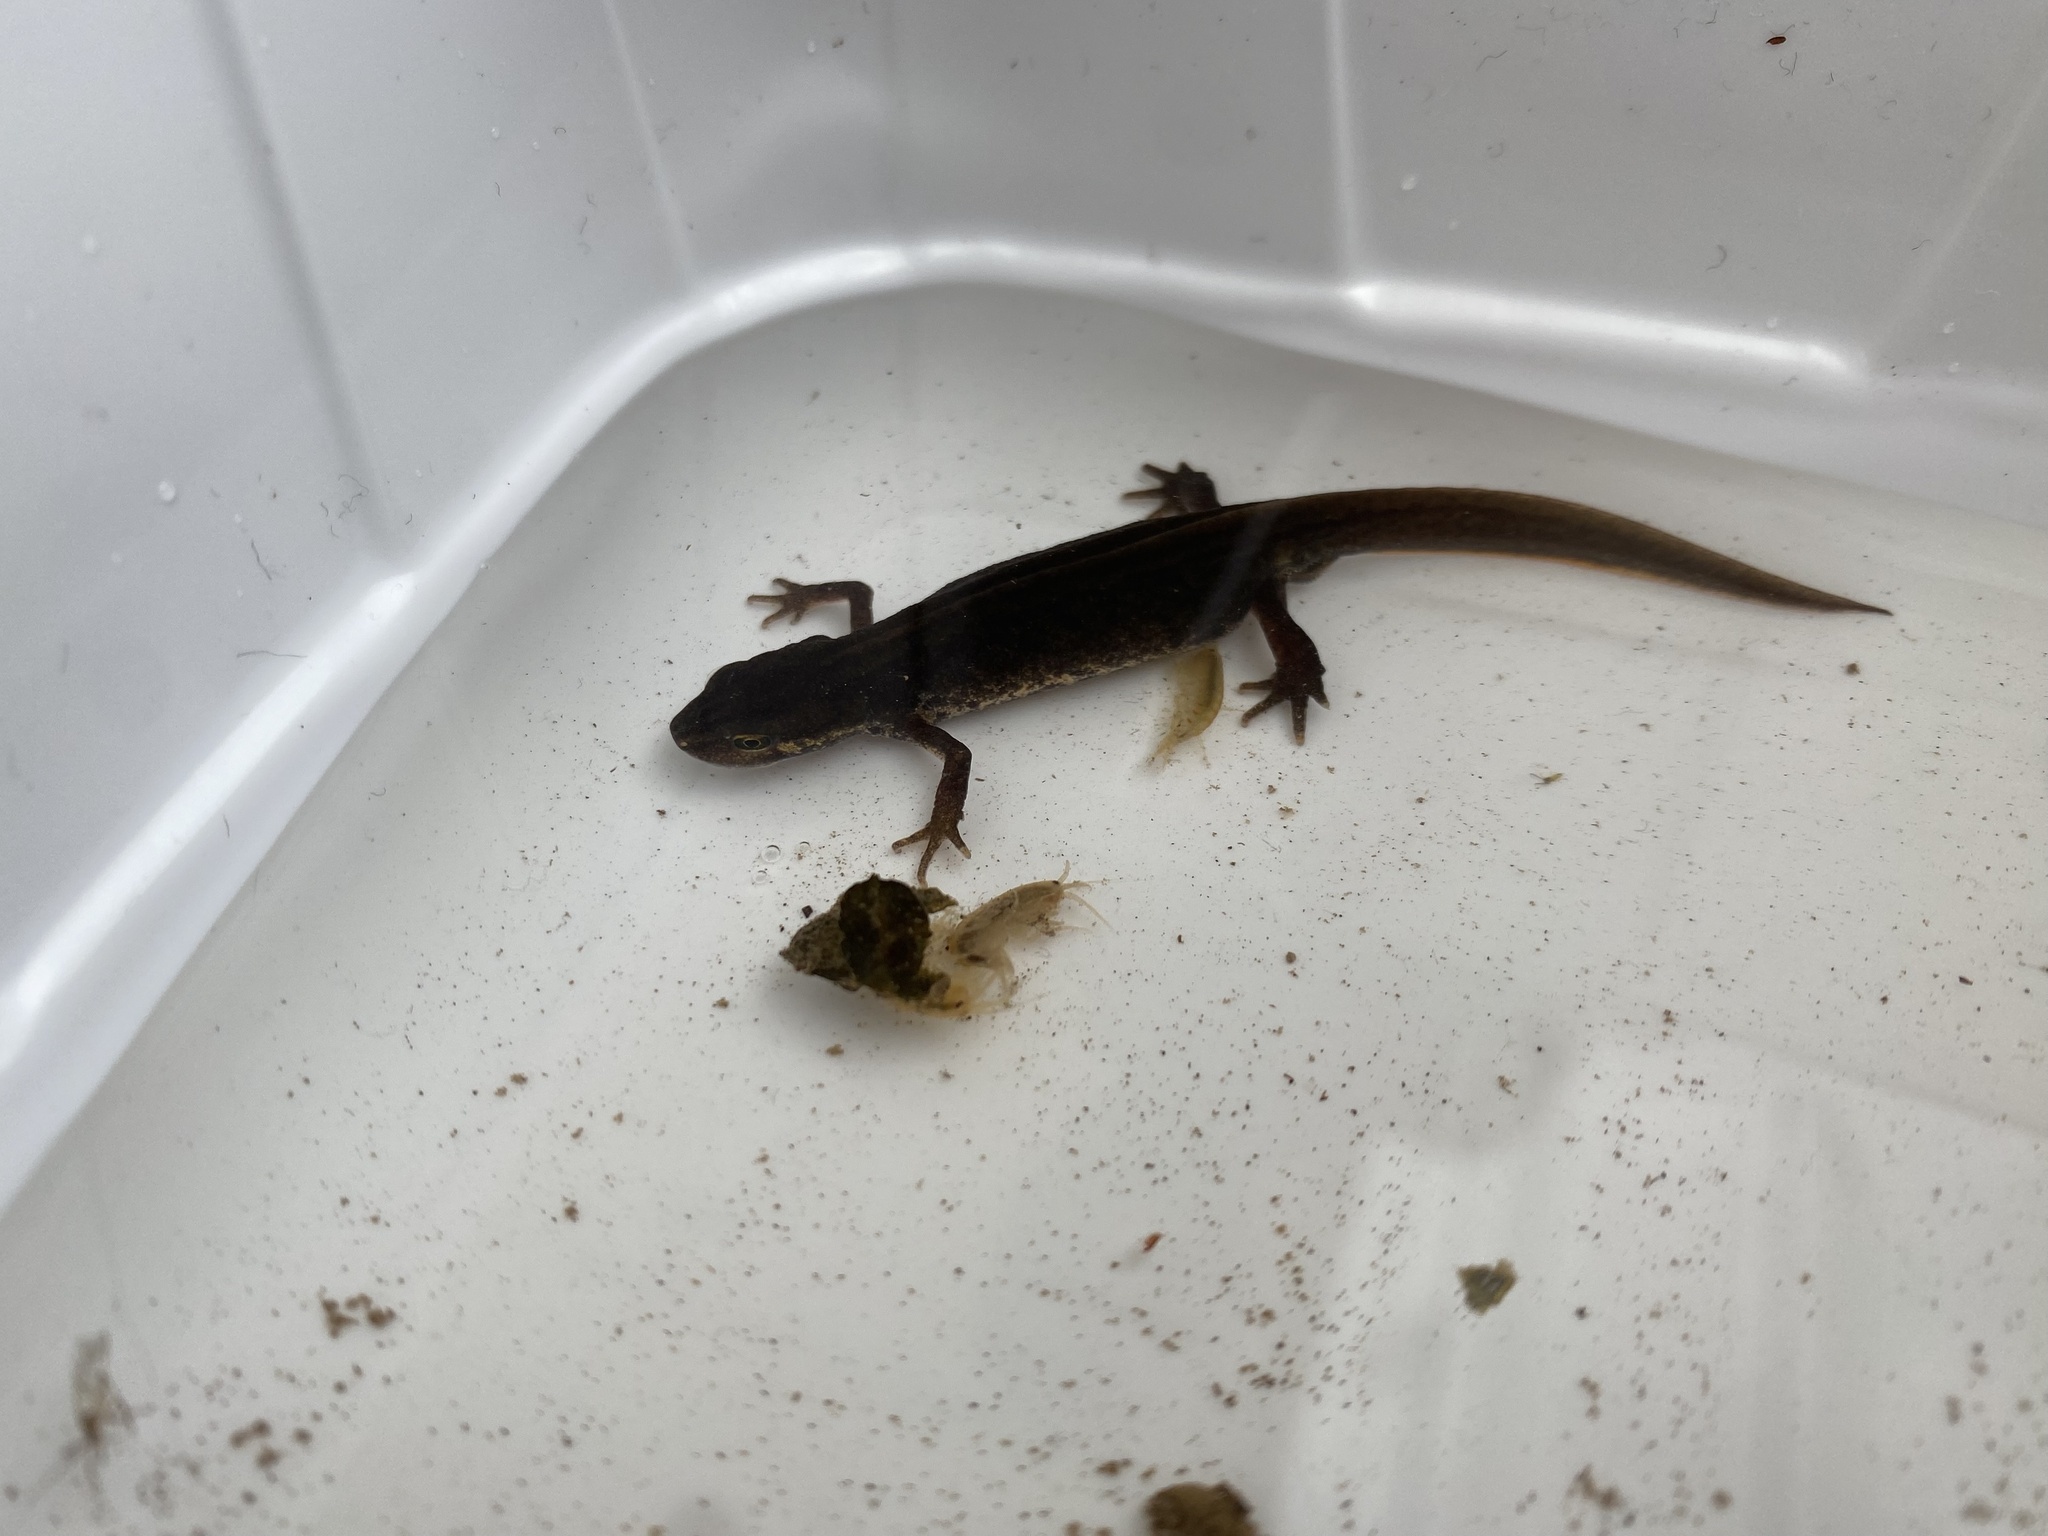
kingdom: Animalia
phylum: Chordata
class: Amphibia
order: Caudata
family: Salamandridae
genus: Lissotriton
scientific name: Lissotriton vulgaris
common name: Smooth newt
